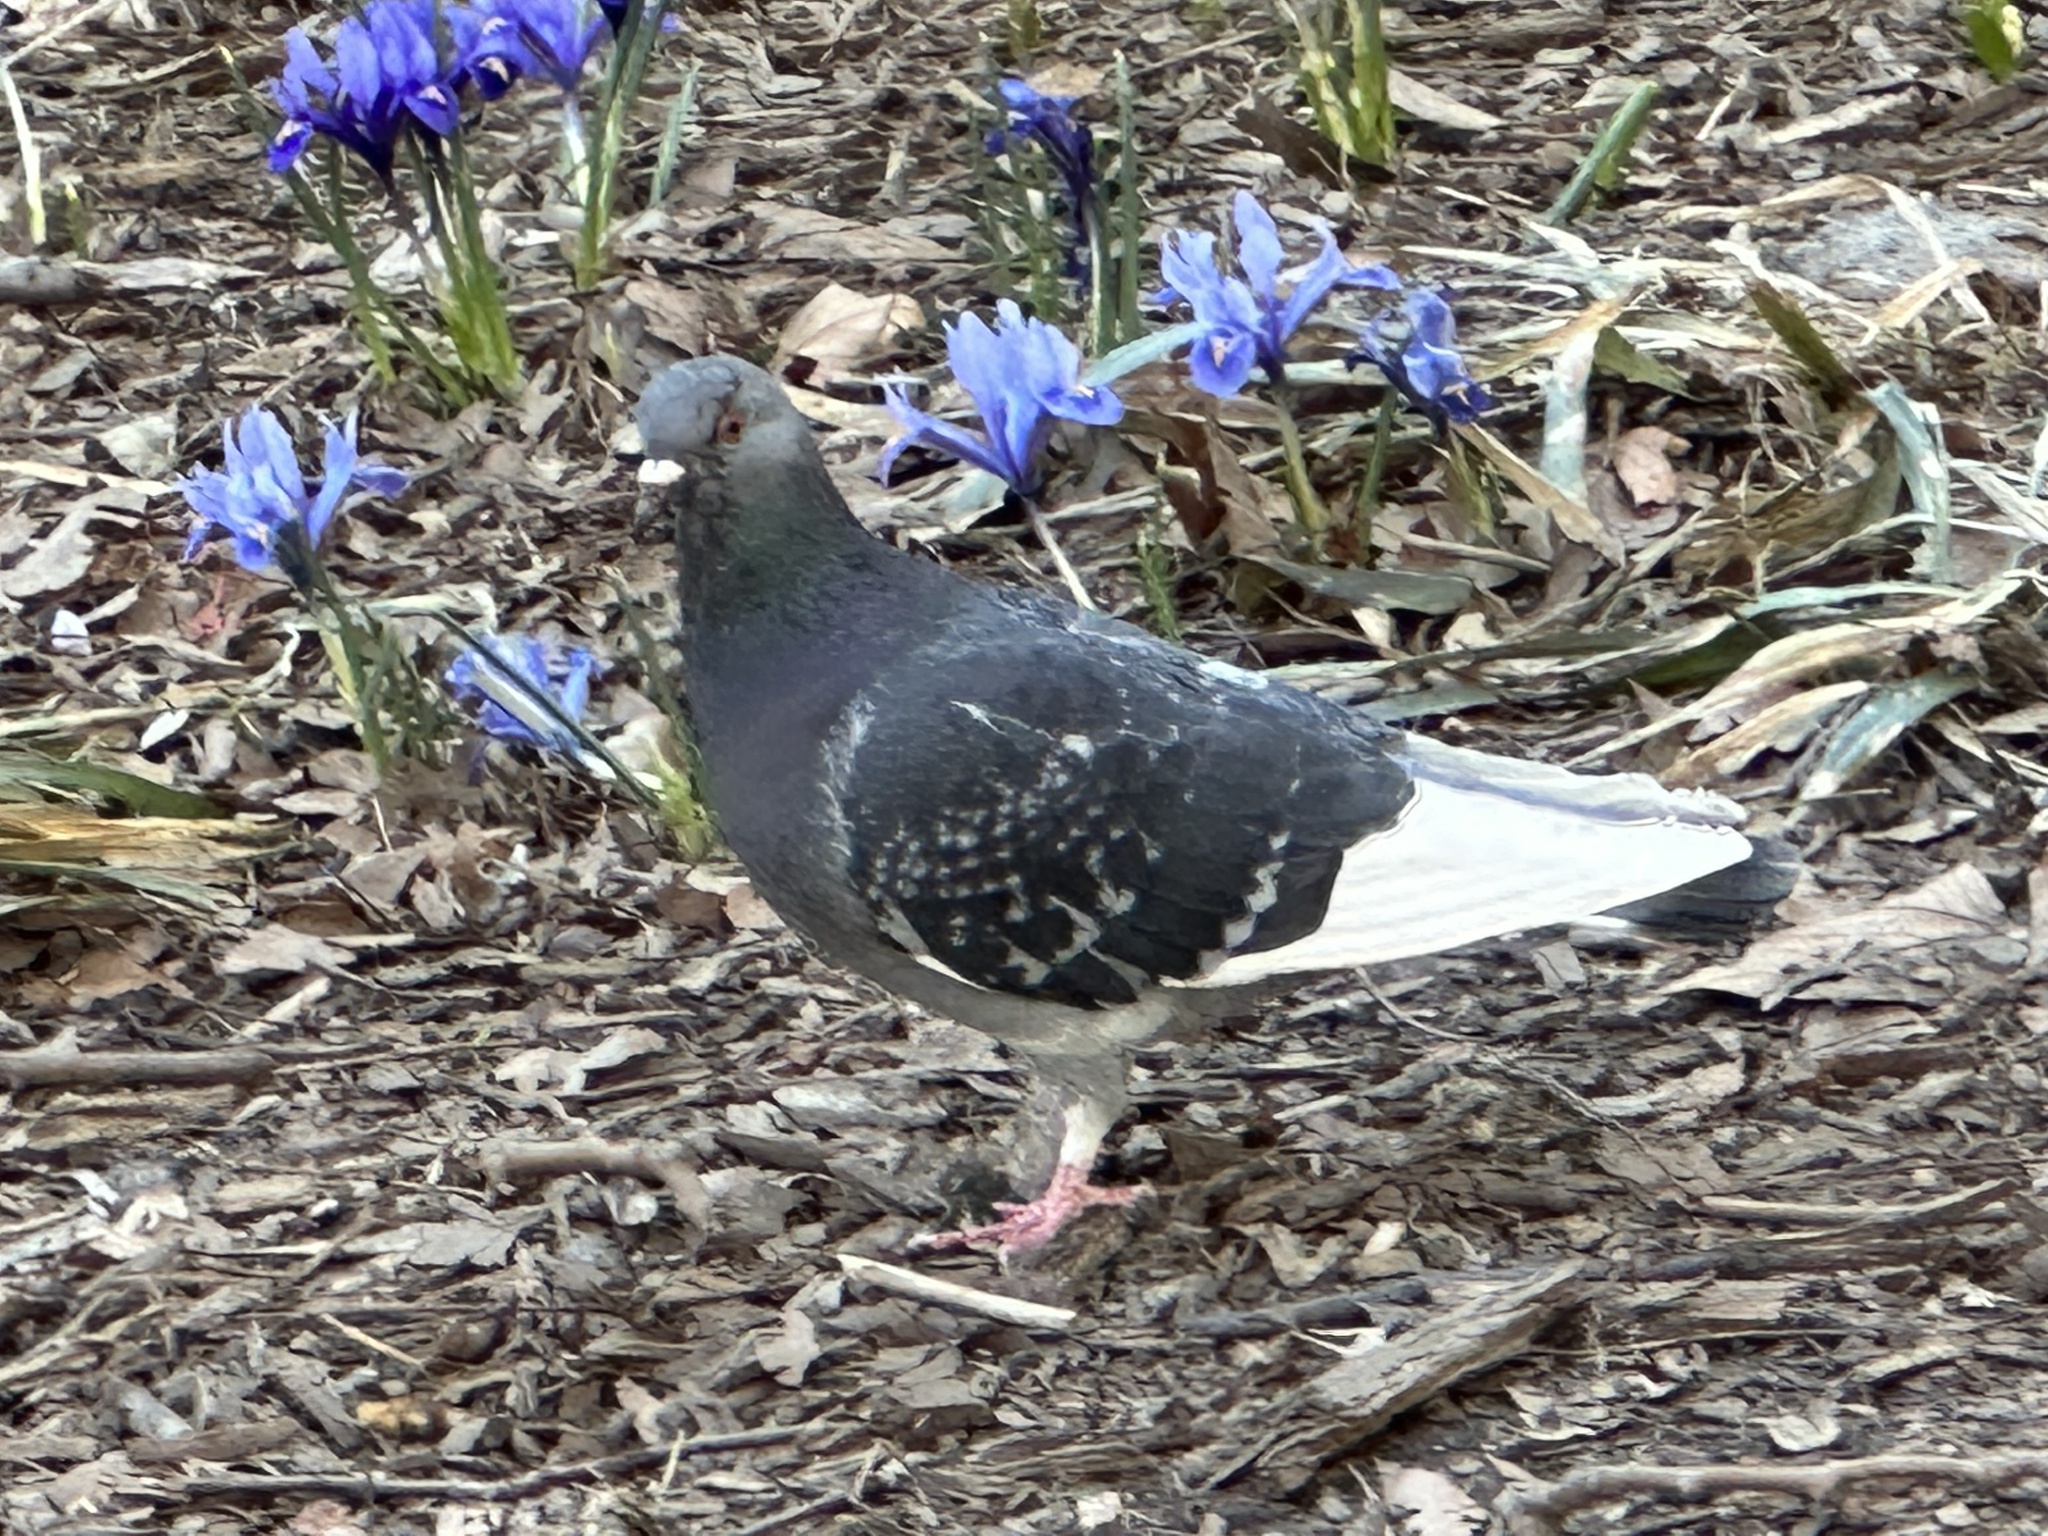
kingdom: Animalia
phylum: Chordata
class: Aves
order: Columbiformes
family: Columbidae
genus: Columba
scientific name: Columba livia
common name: Rock pigeon
